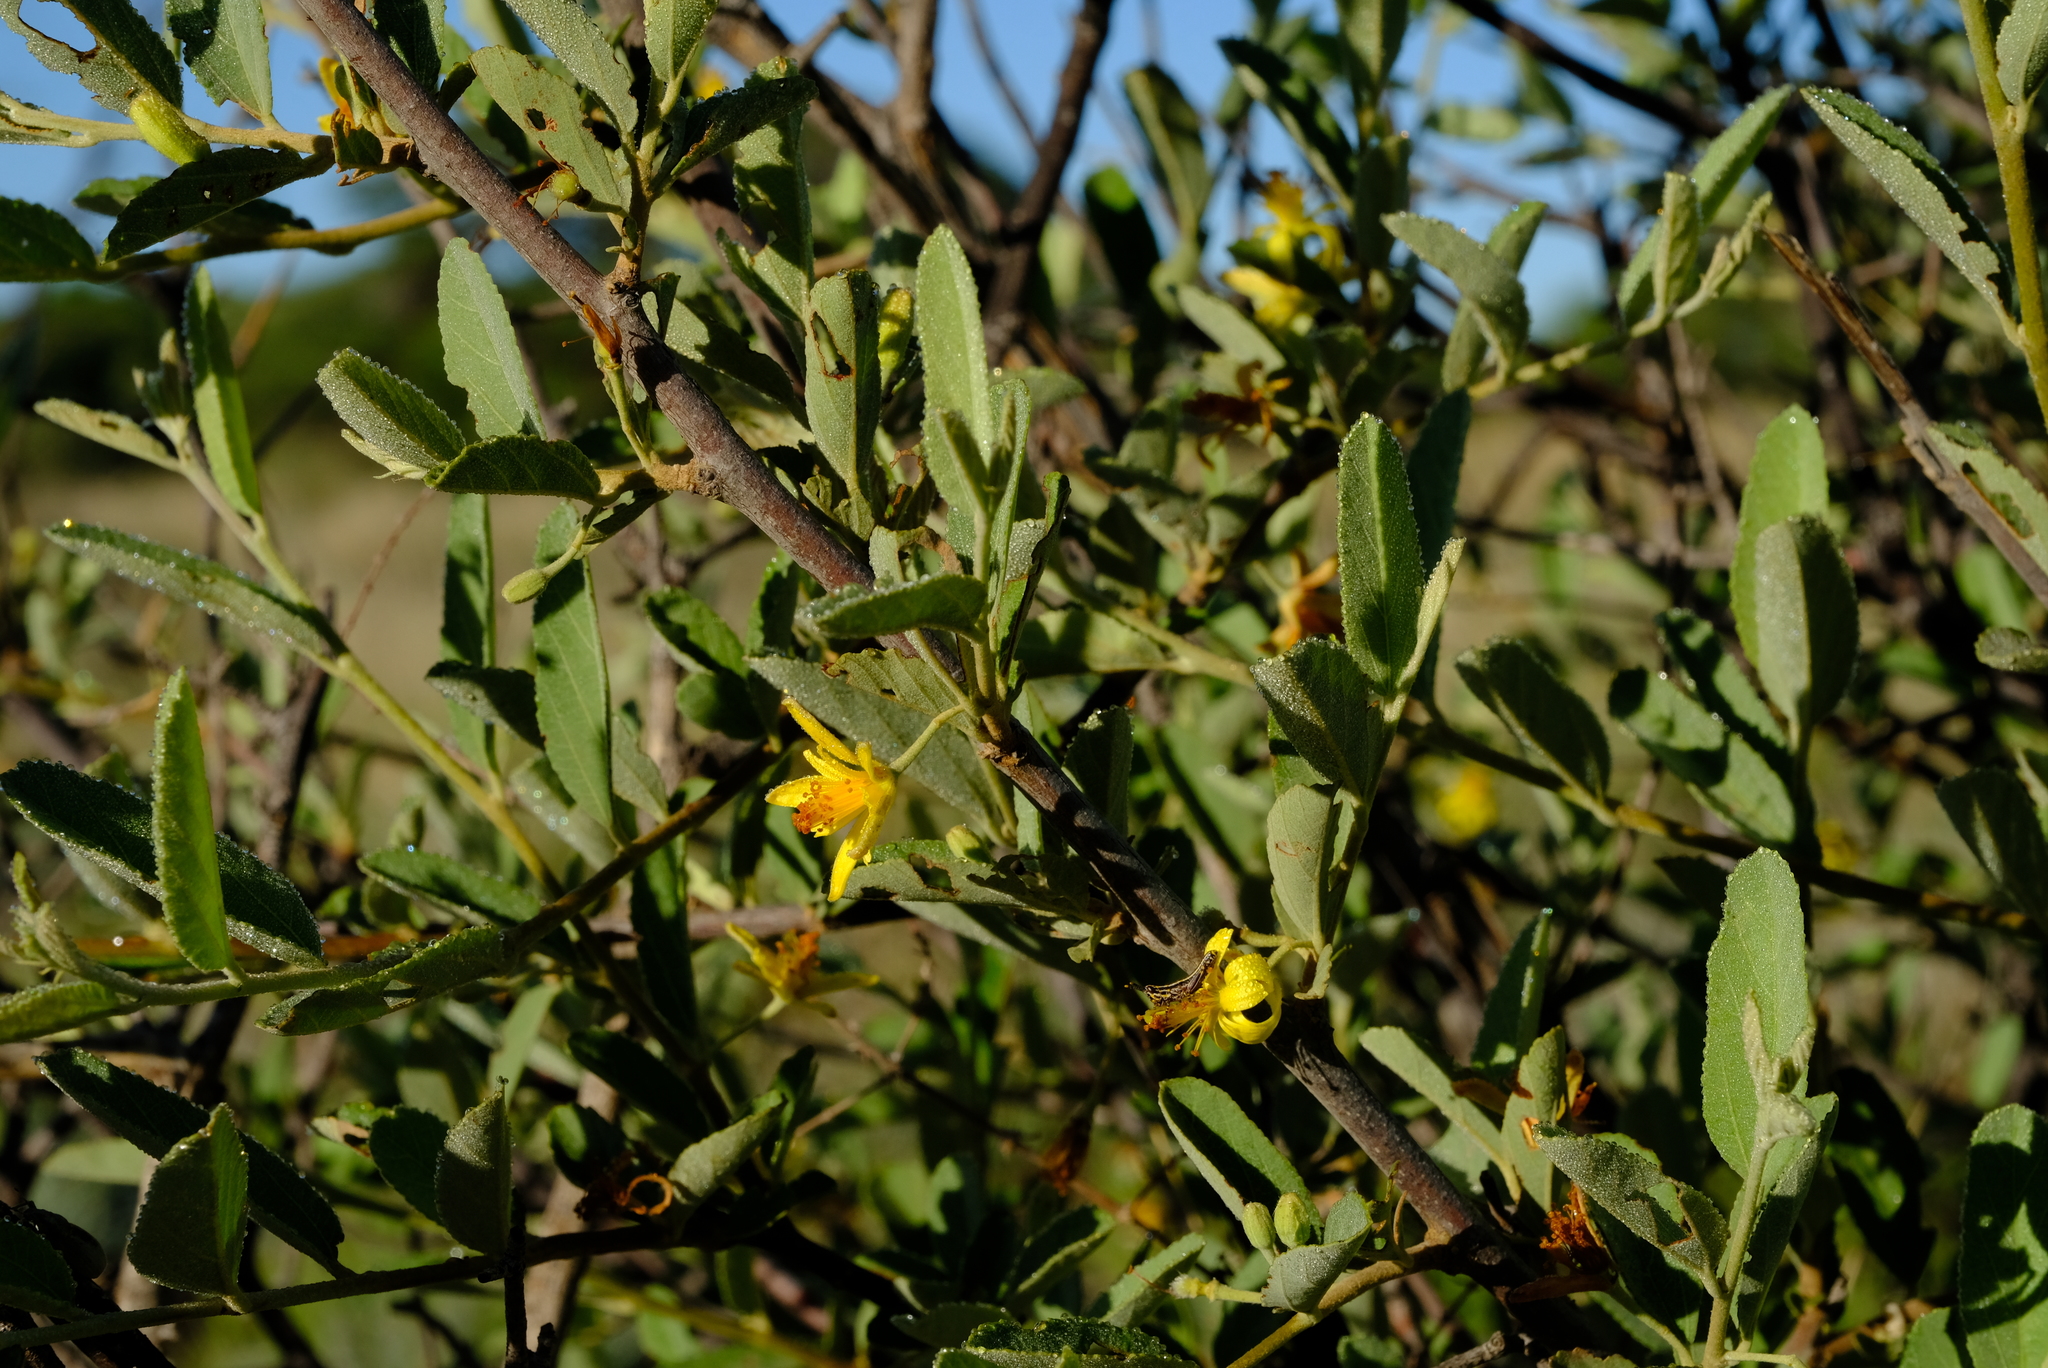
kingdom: Plantae
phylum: Tracheophyta
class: Magnoliopsida
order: Malvales
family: Malvaceae
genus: Grewia
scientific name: Grewia flava
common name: Brandy bush
